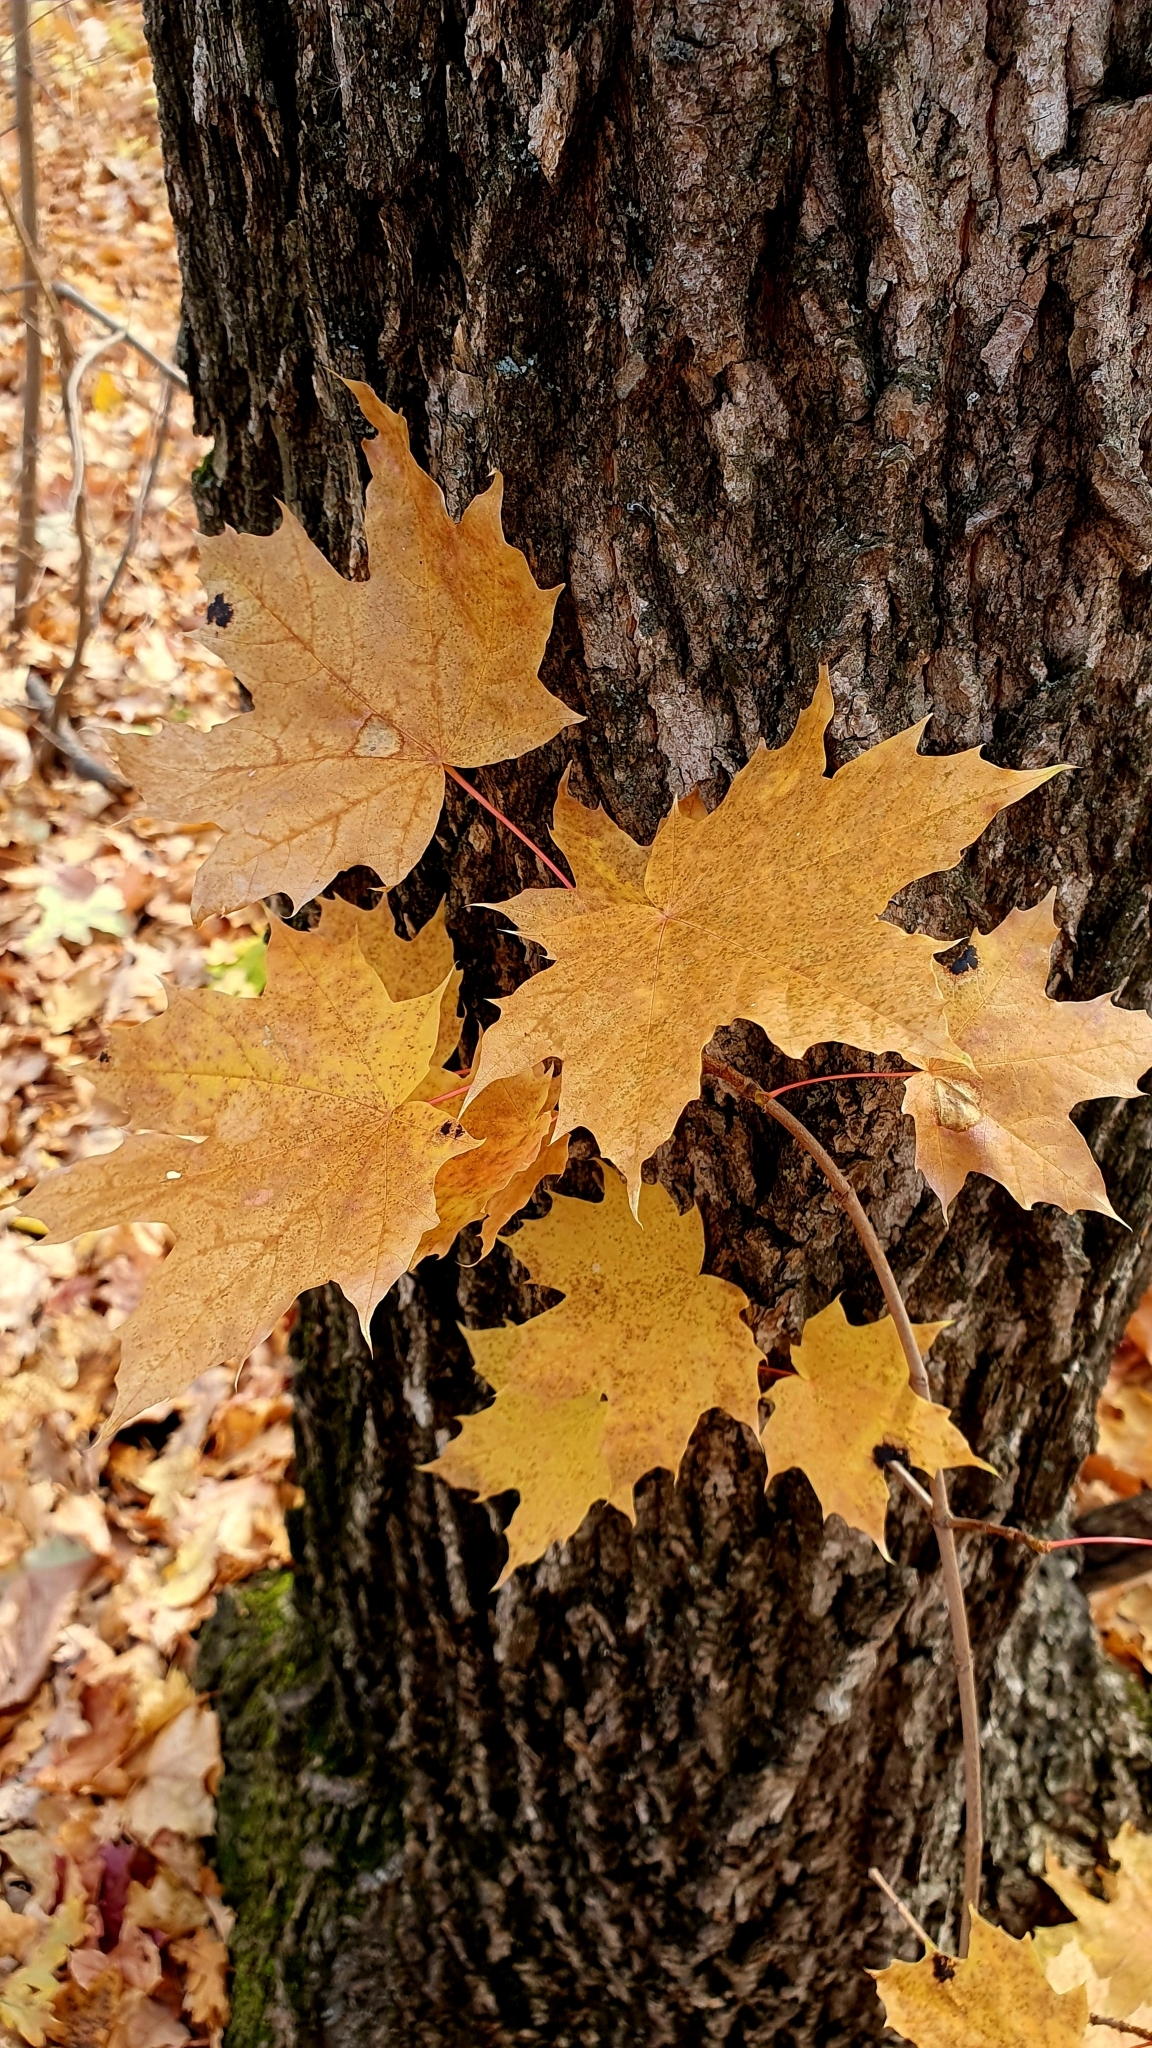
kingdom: Plantae
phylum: Tracheophyta
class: Magnoliopsida
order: Sapindales
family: Sapindaceae
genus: Acer
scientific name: Acer platanoides
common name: Norway maple
